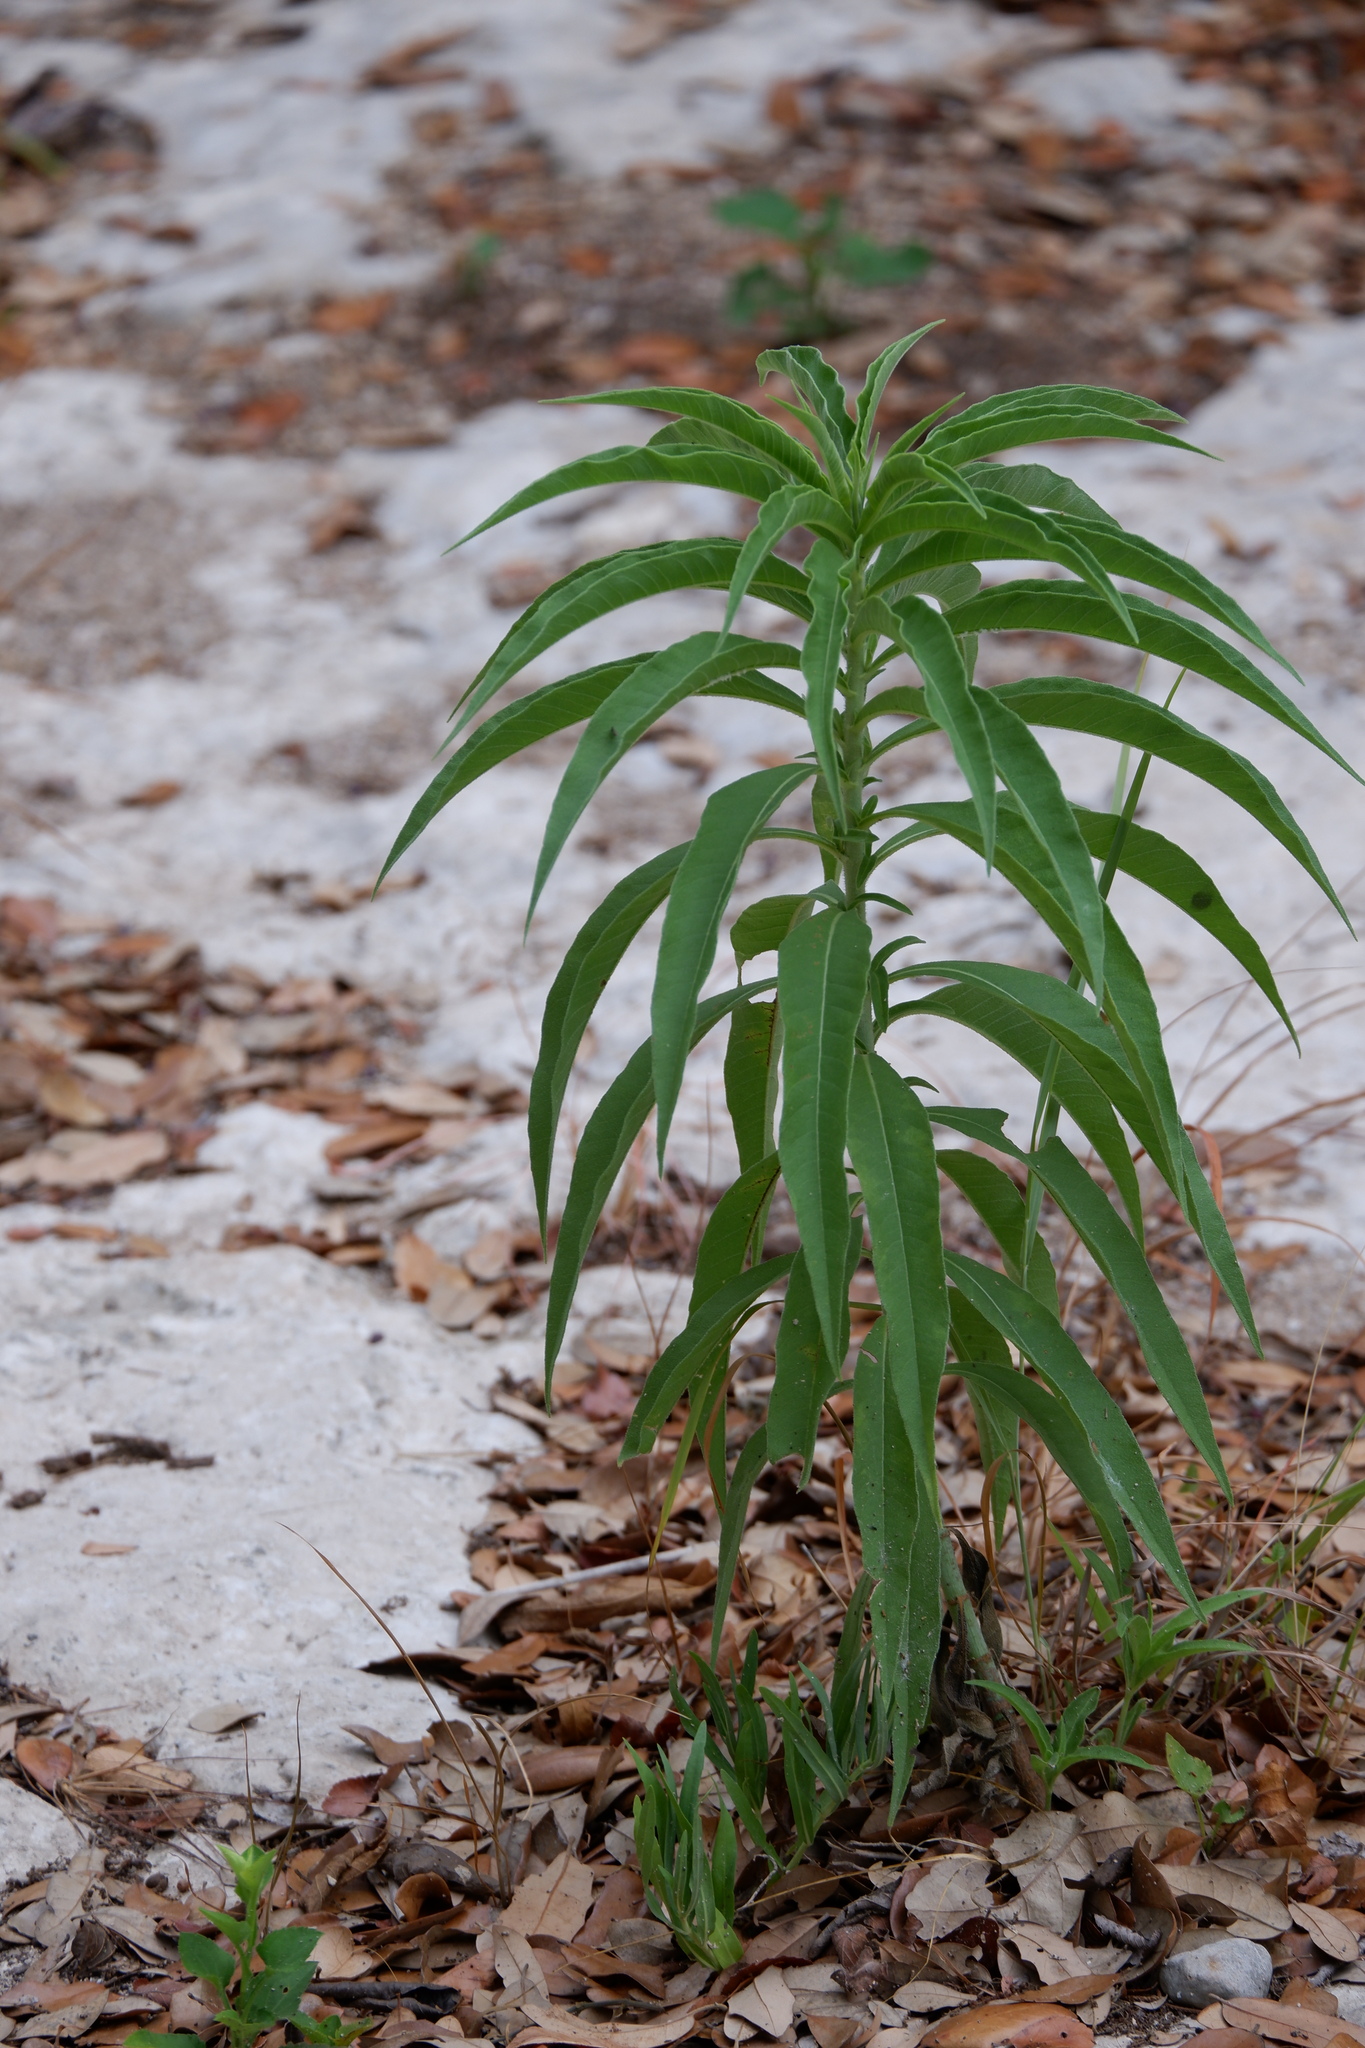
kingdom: Plantae
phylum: Tracheophyta
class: Magnoliopsida
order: Asterales
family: Asteraceae
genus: Helianthus
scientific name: Helianthus maximiliani
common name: Maximilian's sunflower
